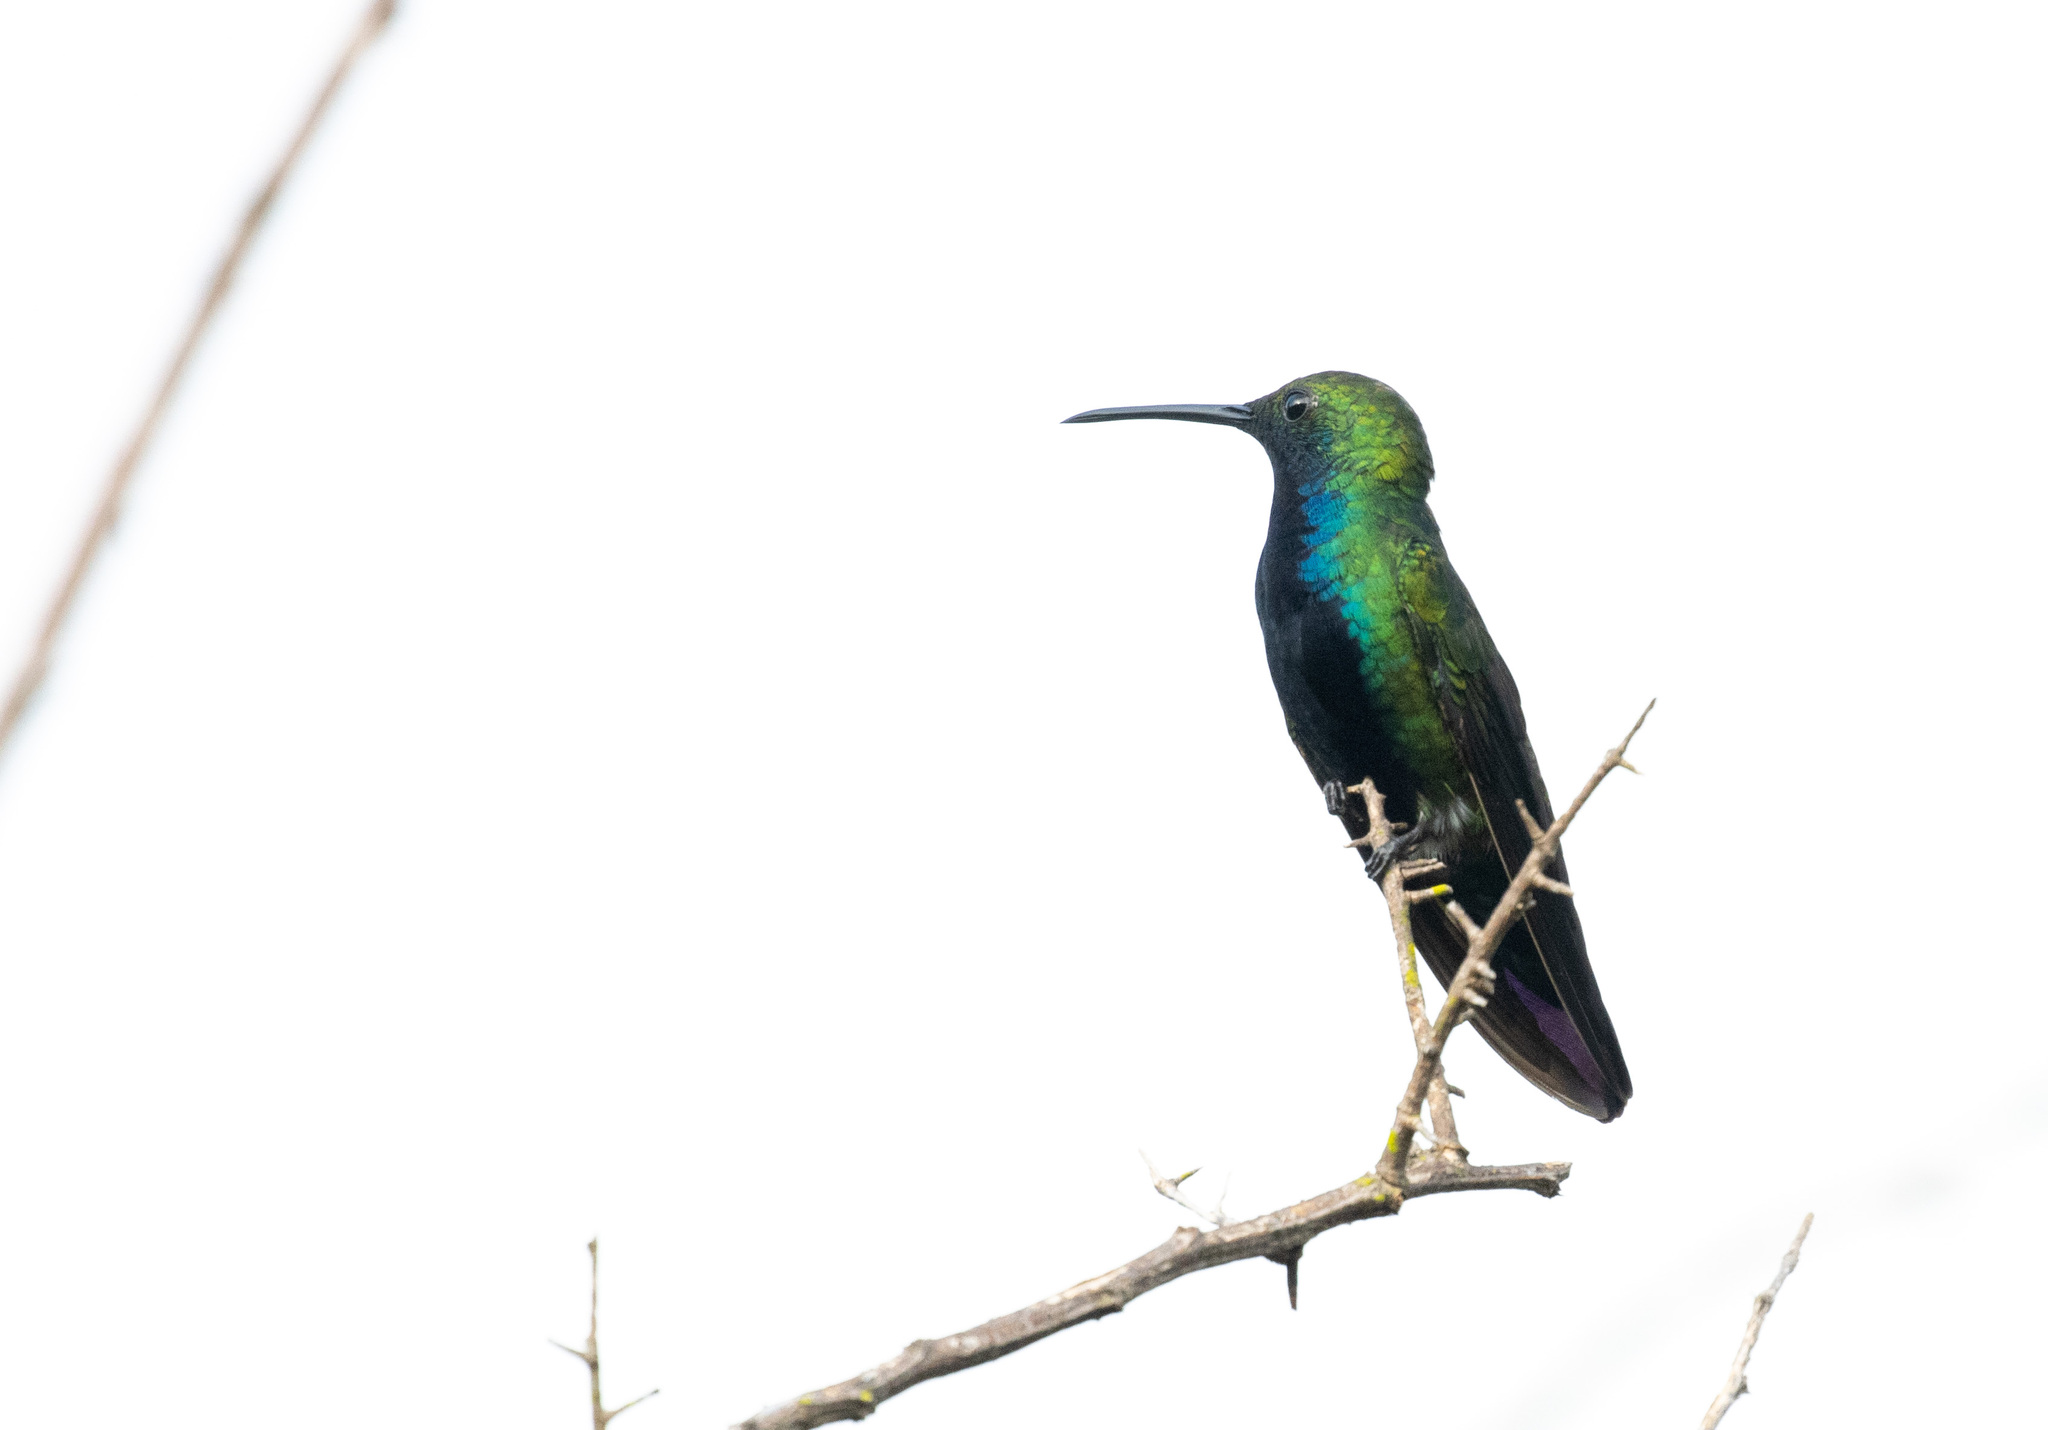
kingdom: Animalia
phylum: Chordata
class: Aves
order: Apodiformes
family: Trochilidae
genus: Anthracothorax
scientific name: Anthracothorax nigricollis
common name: Black-throated mango
